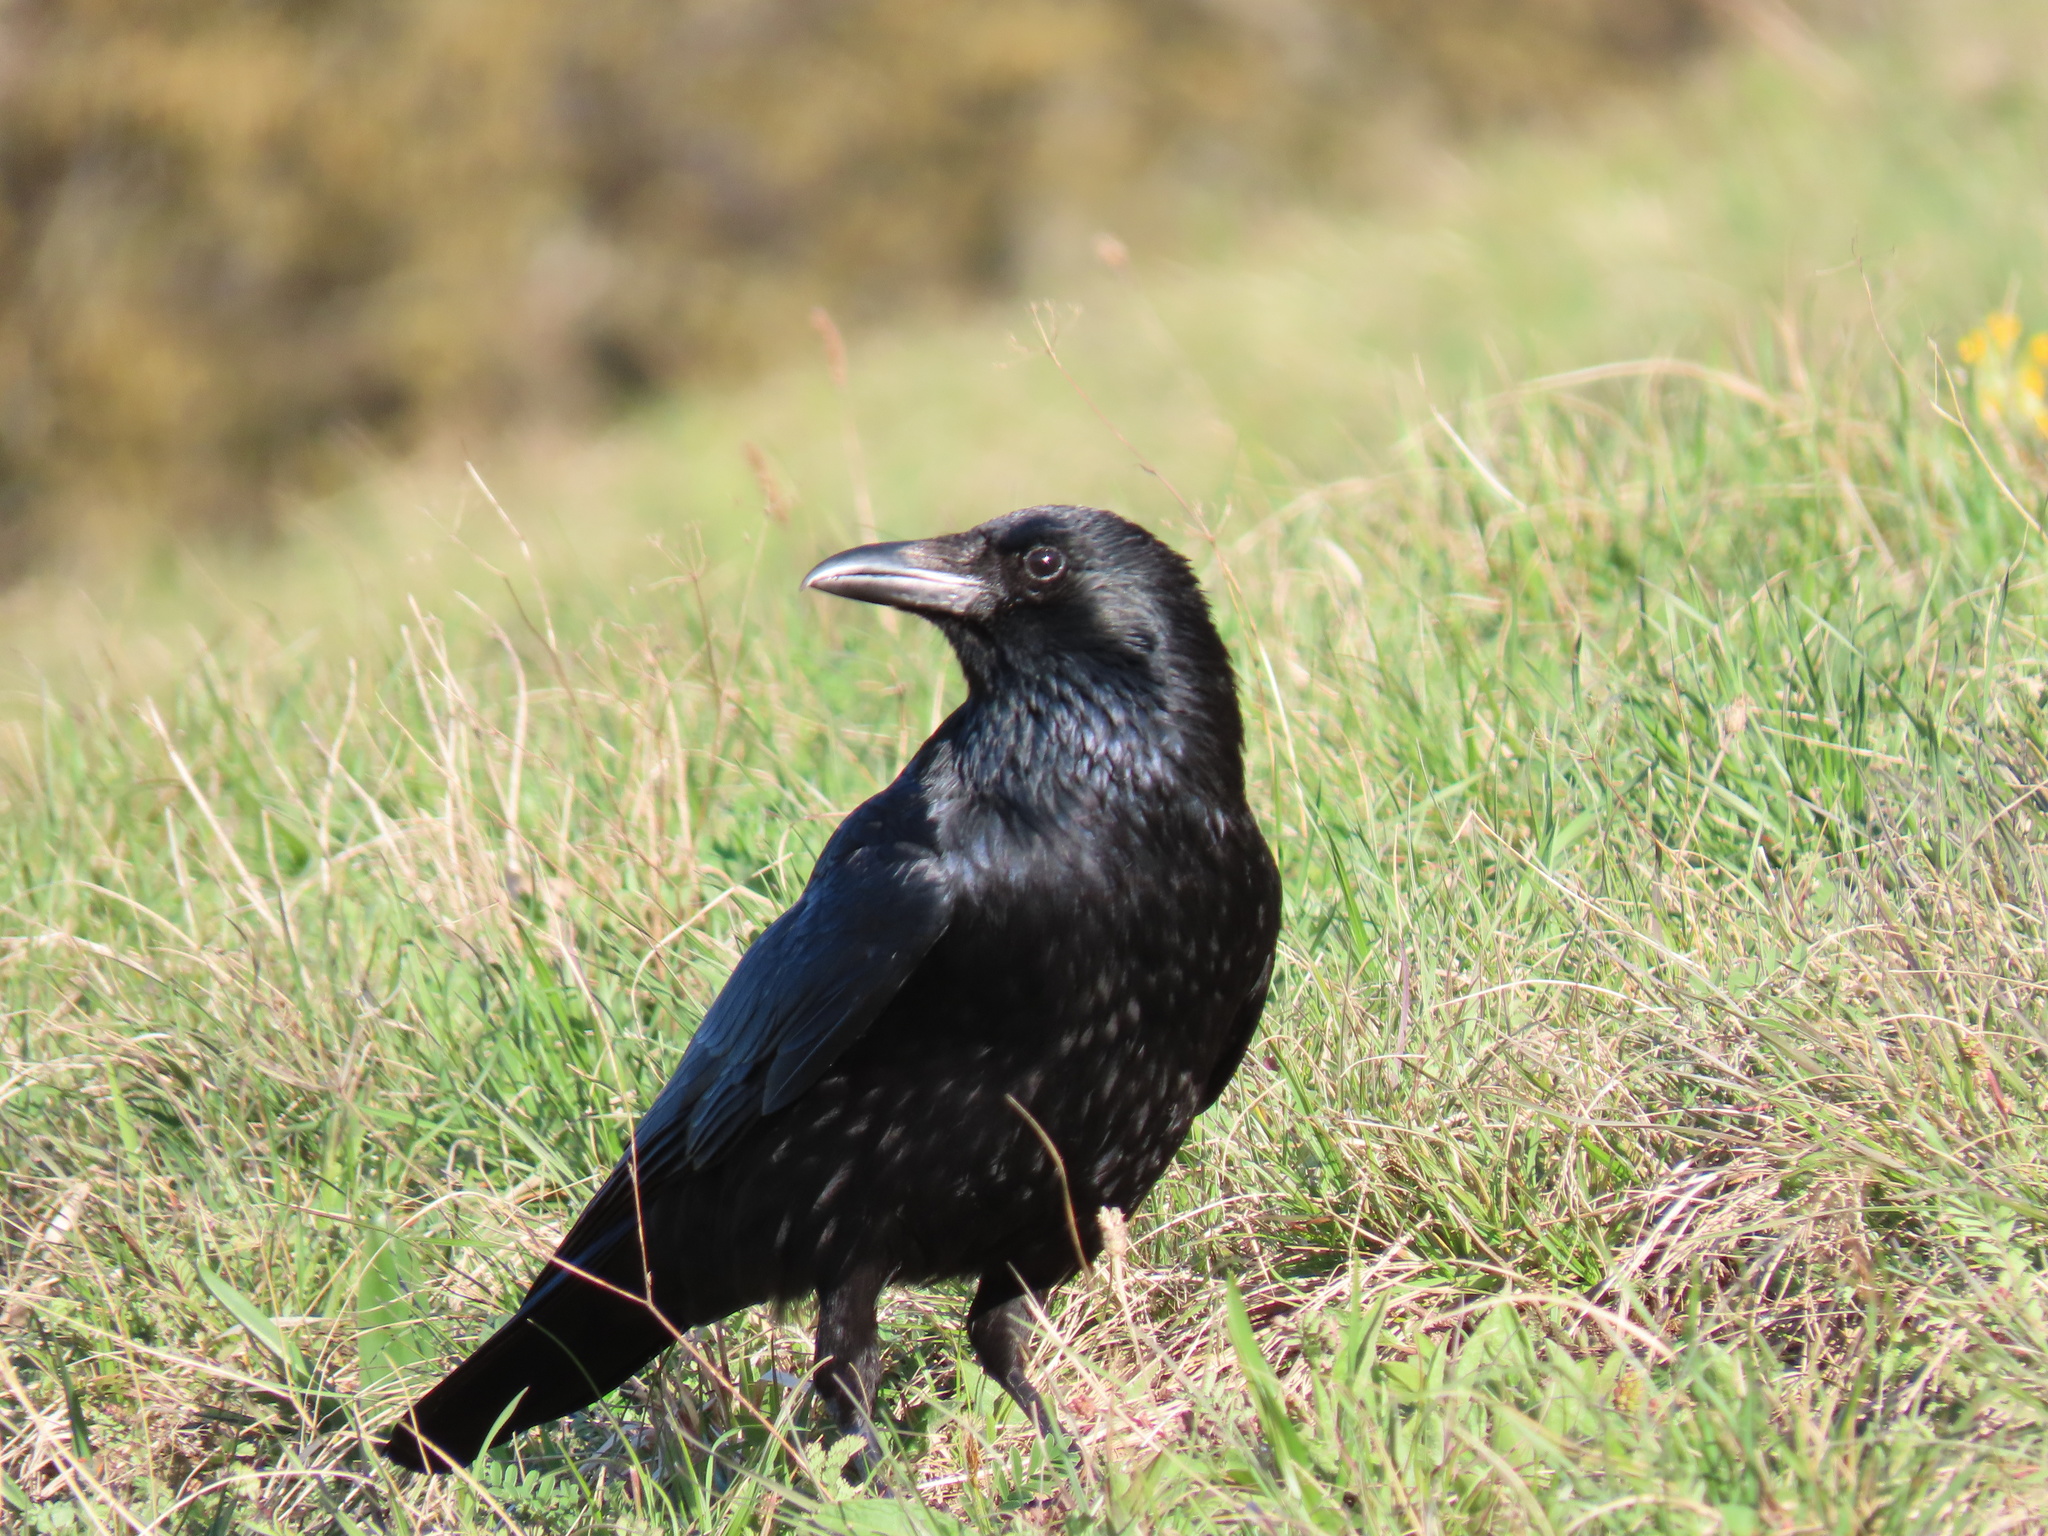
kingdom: Animalia
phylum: Chordata
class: Aves
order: Passeriformes
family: Corvidae
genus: Corvus
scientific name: Corvus corone
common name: Carrion crow
